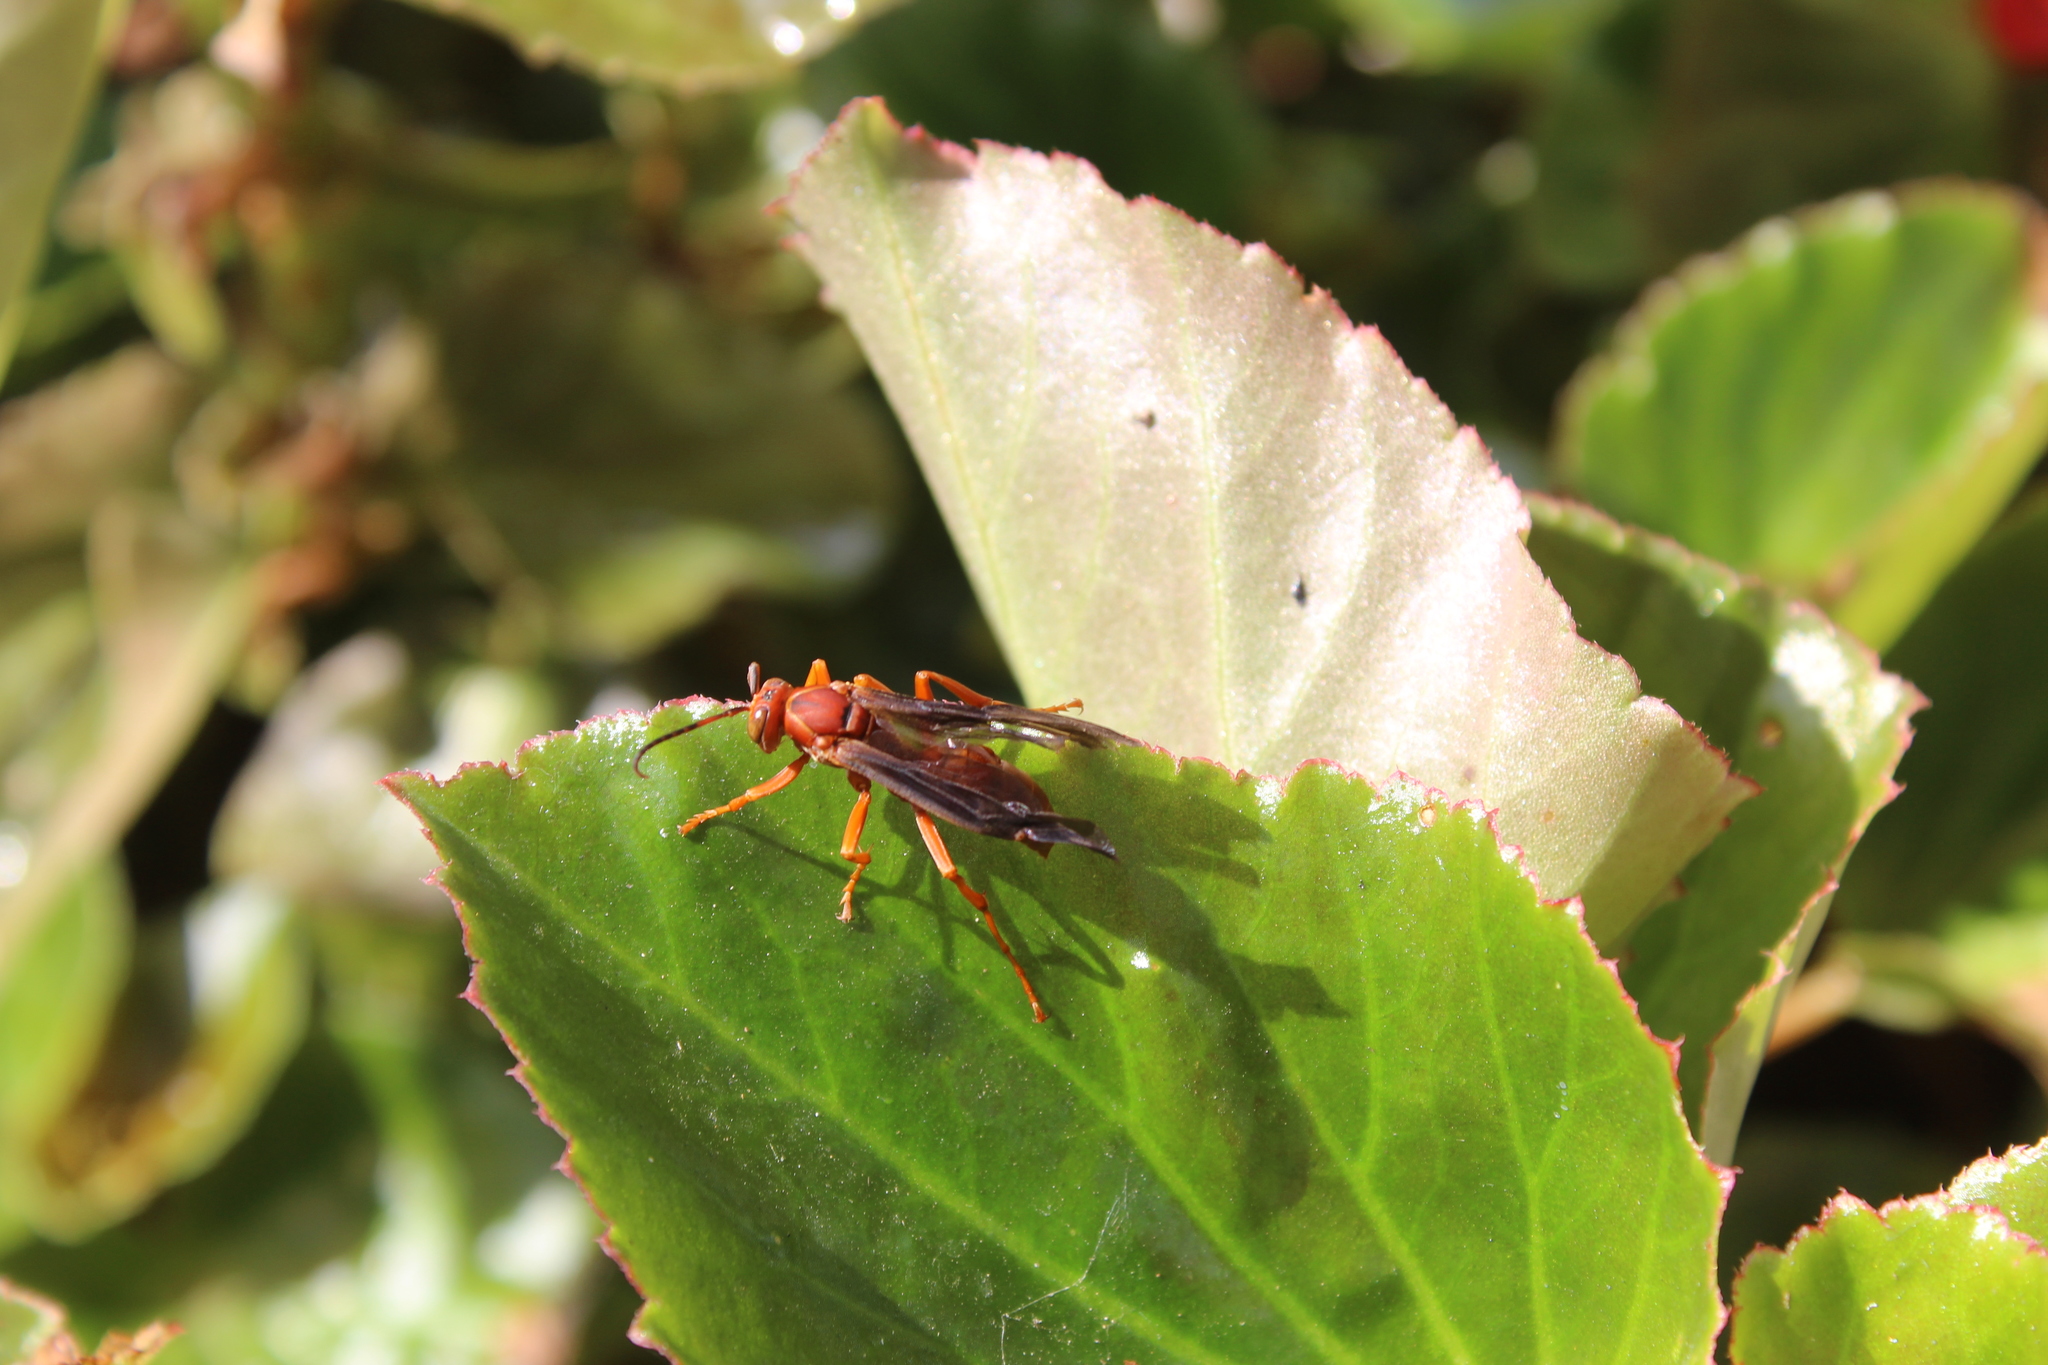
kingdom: Animalia
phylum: Arthropoda
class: Insecta
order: Hymenoptera
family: Vespidae
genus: Fuscopolistes
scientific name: Fuscopolistes
